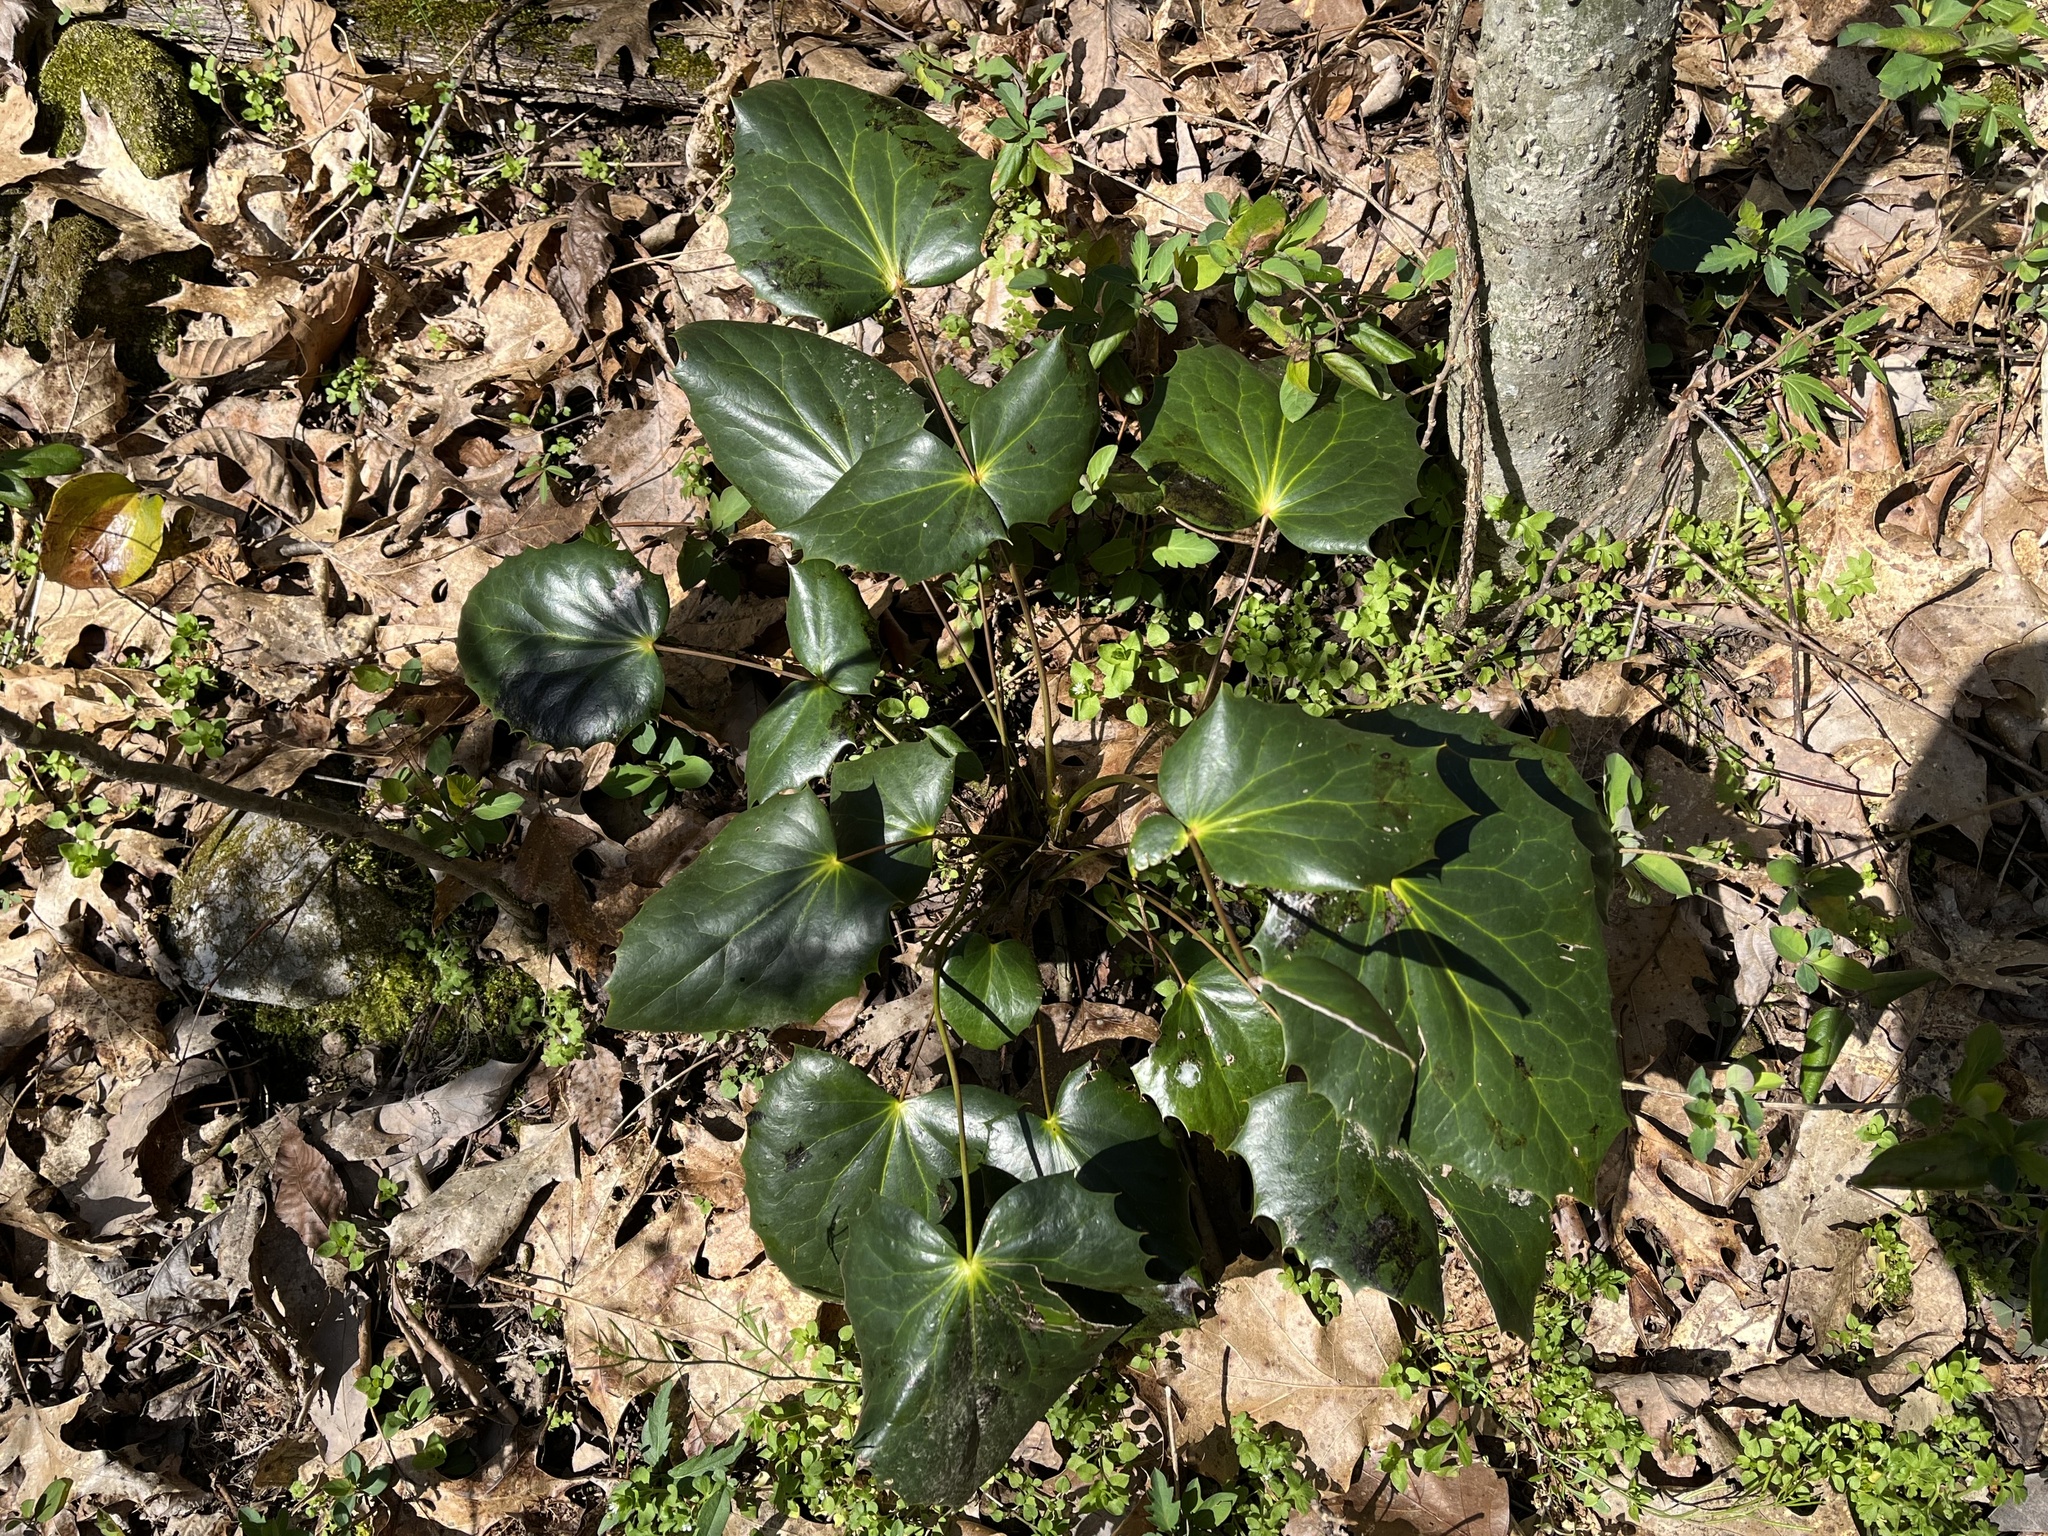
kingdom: Plantae
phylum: Tracheophyta
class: Magnoliopsida
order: Ranunculales
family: Berberidaceae
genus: Mahonia
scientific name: Mahonia bealei
